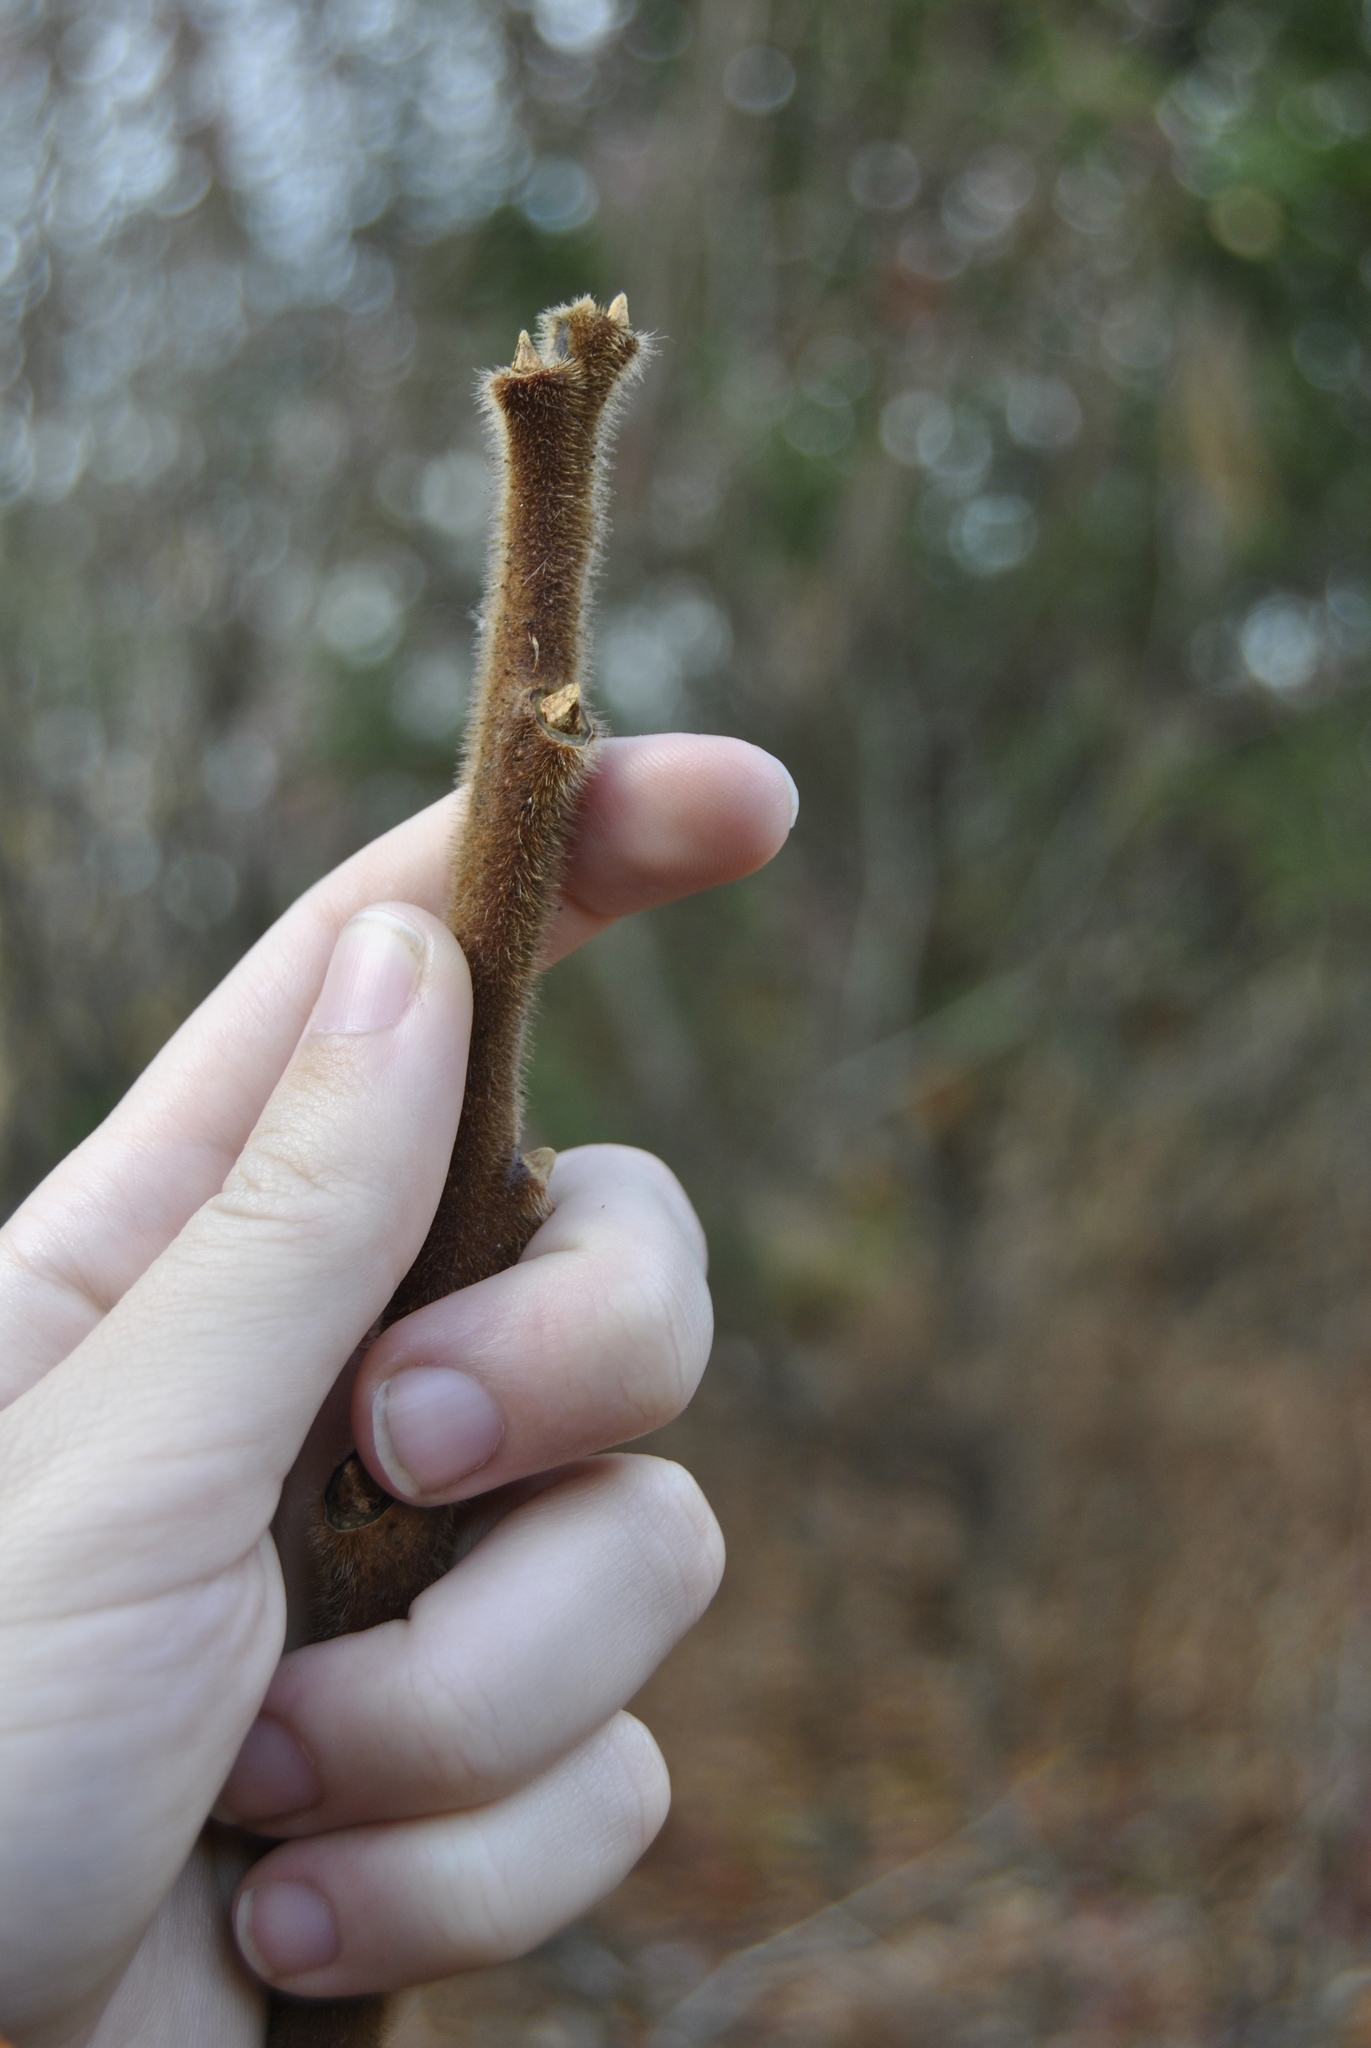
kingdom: Plantae
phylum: Tracheophyta
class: Magnoliopsida
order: Sapindales
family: Anacardiaceae
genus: Rhus
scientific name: Rhus typhina
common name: Staghorn sumac
